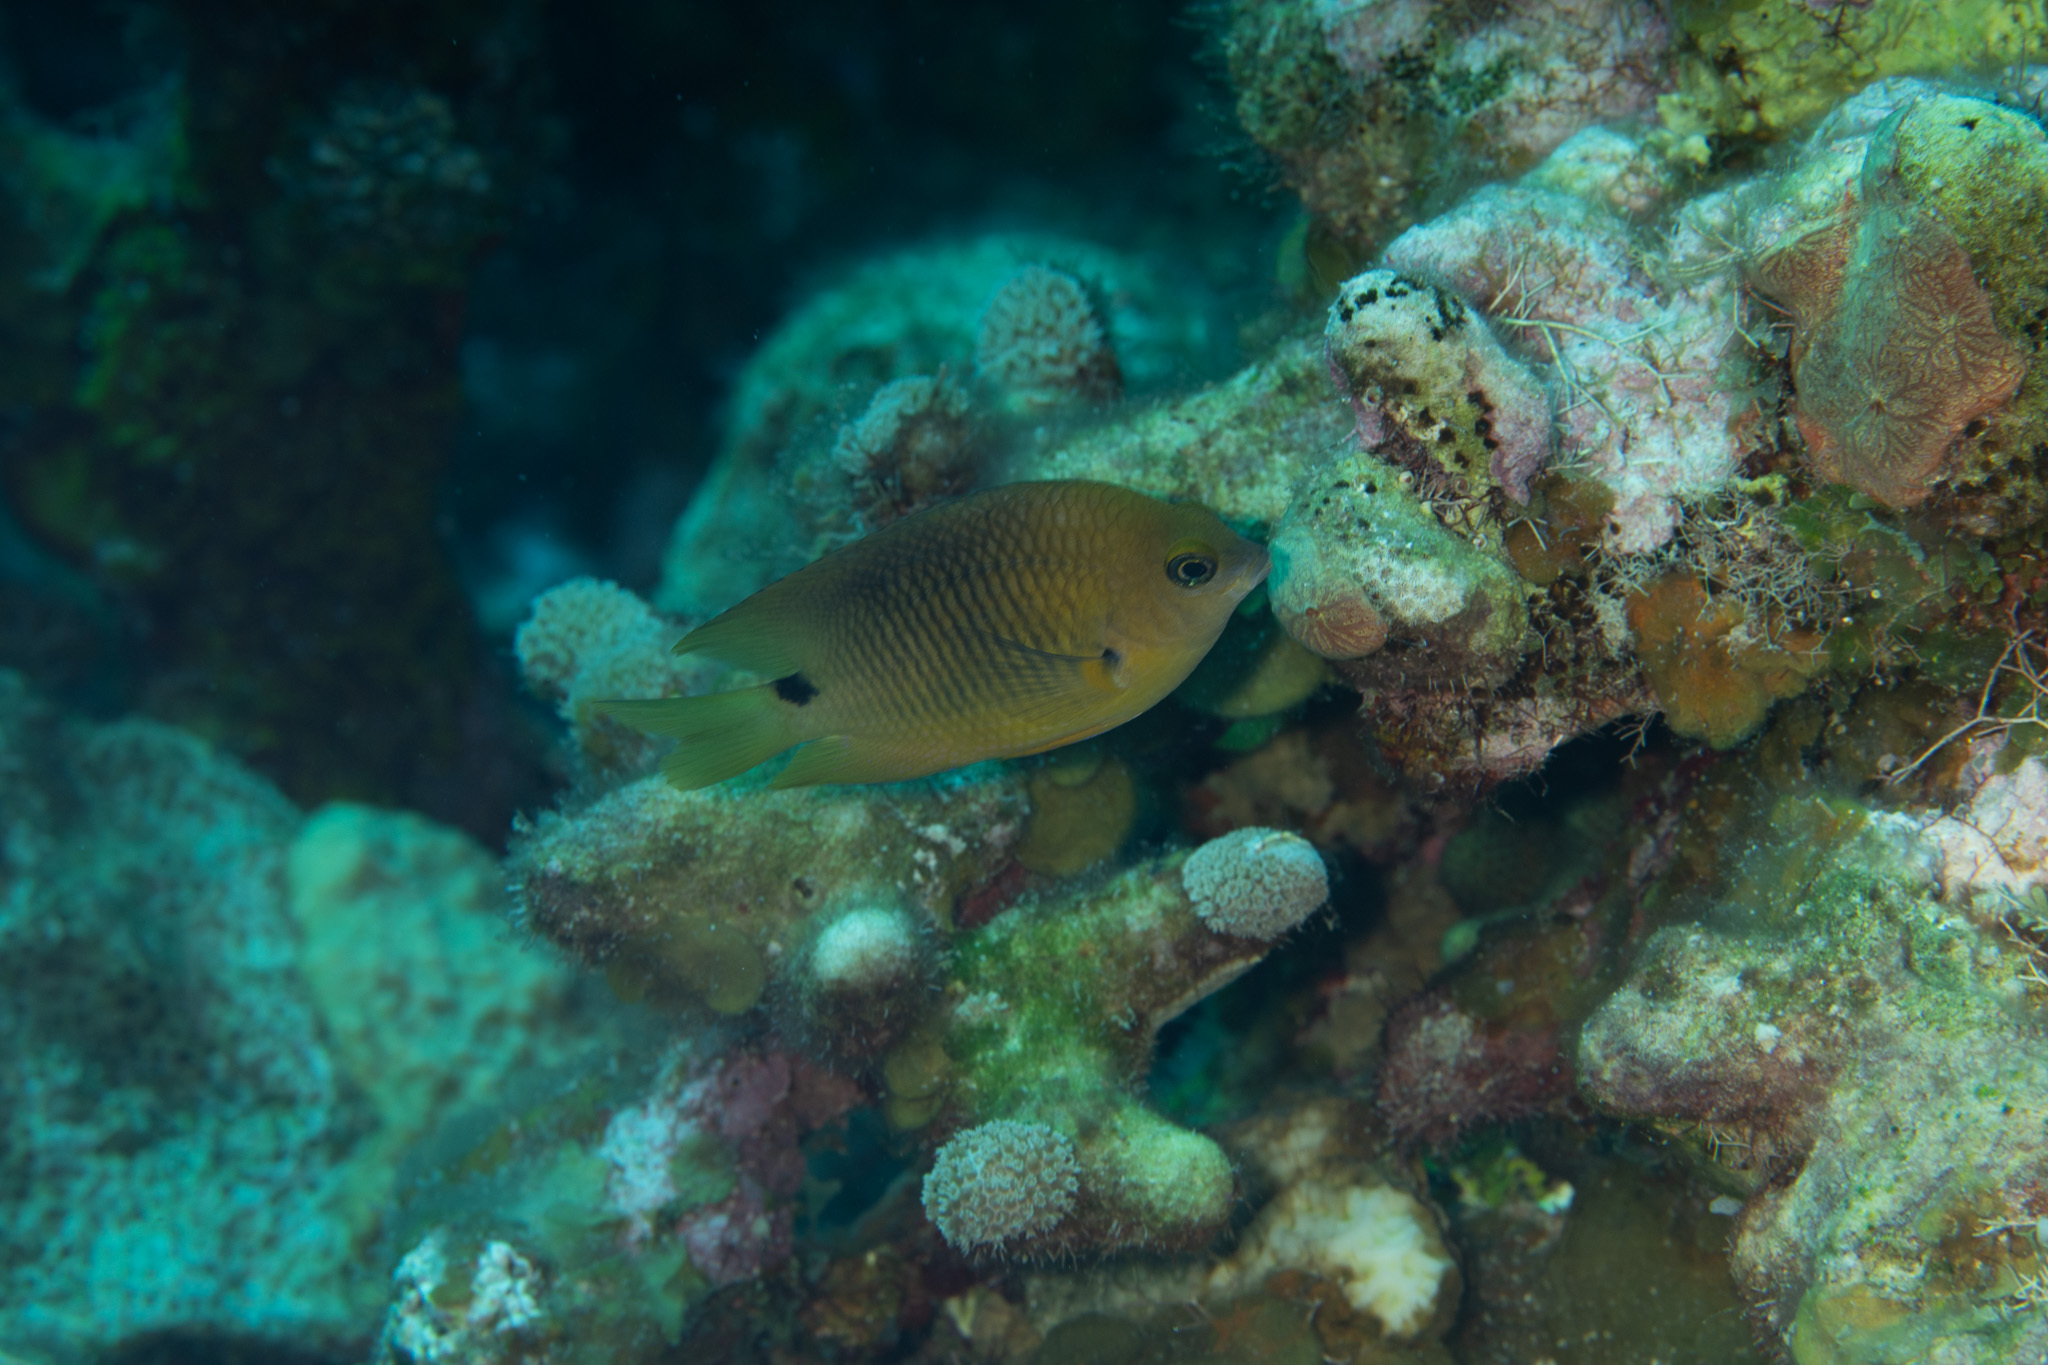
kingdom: Animalia
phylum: Chordata
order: Perciformes
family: Pomacentridae
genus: Stegastes
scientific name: Stegastes planifrons
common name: Threespot damselfish
